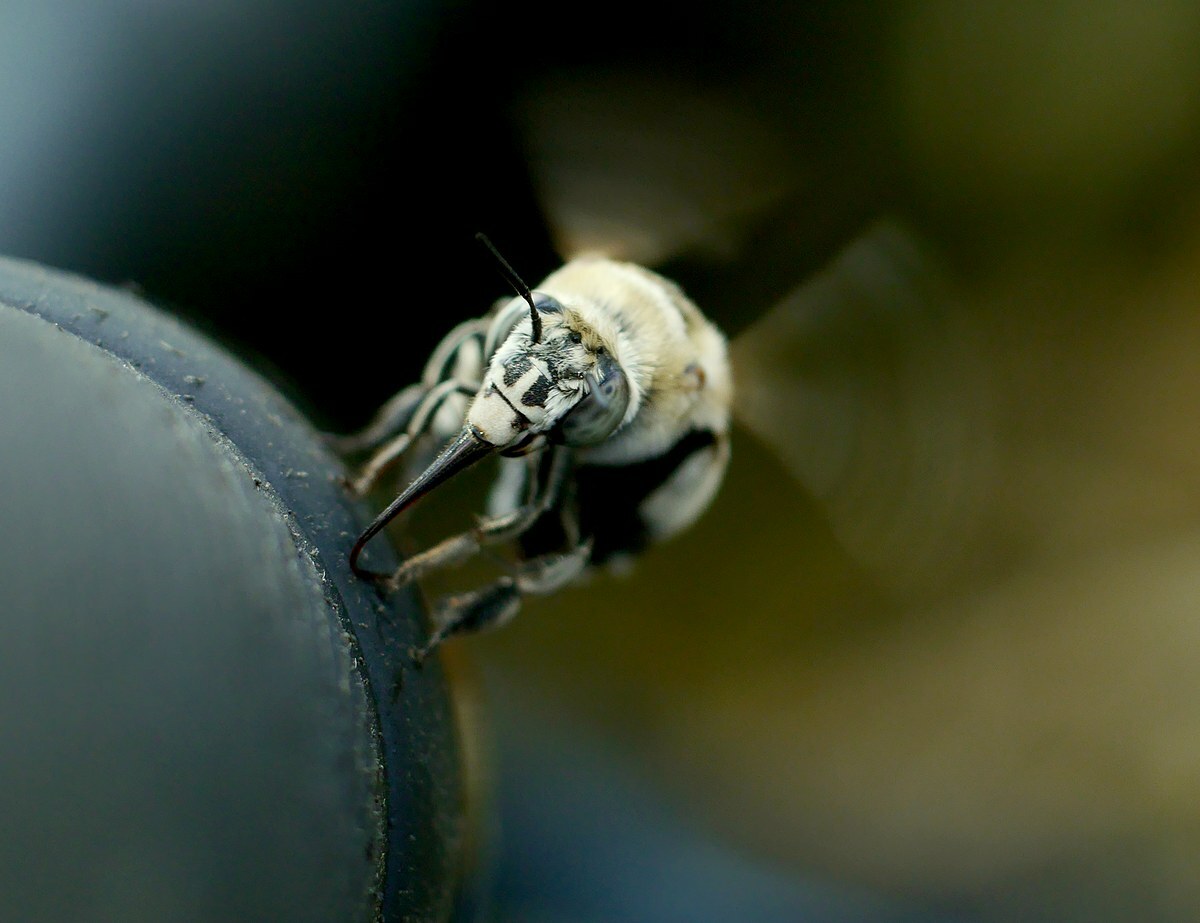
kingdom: Animalia
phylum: Arthropoda
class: Insecta
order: Hymenoptera
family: Apidae
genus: Amegilla
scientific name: Amegilla quadrifasciata
